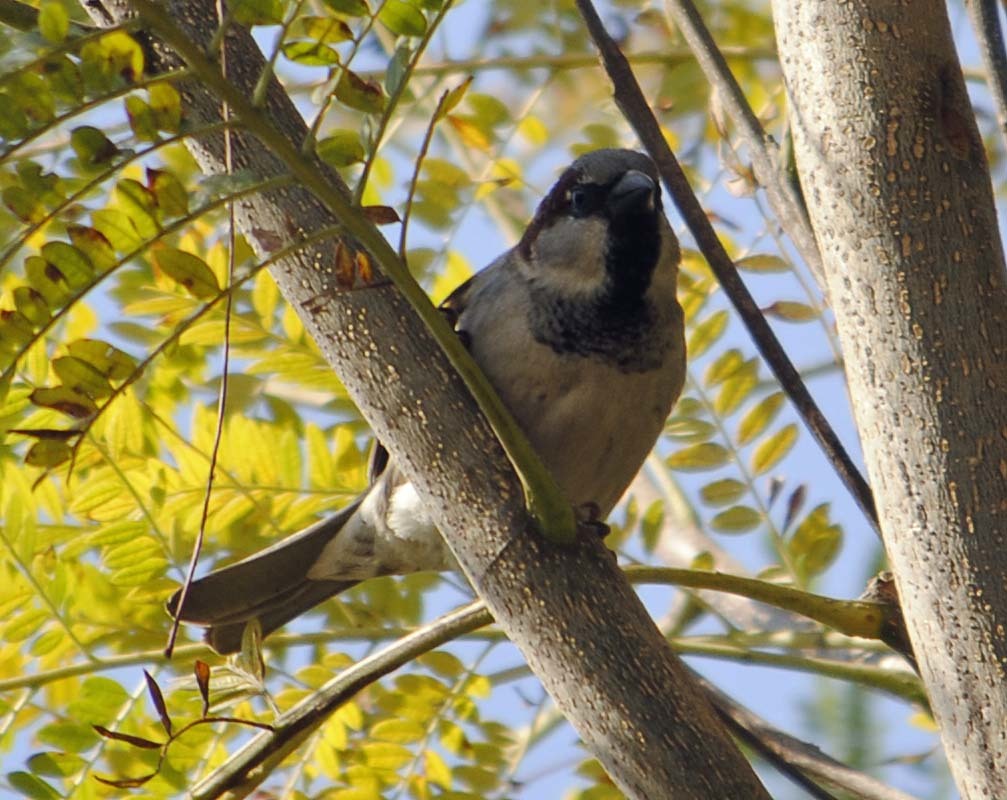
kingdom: Animalia
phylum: Chordata
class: Aves
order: Passeriformes
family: Passeridae
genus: Passer
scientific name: Passer domesticus
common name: House sparrow
